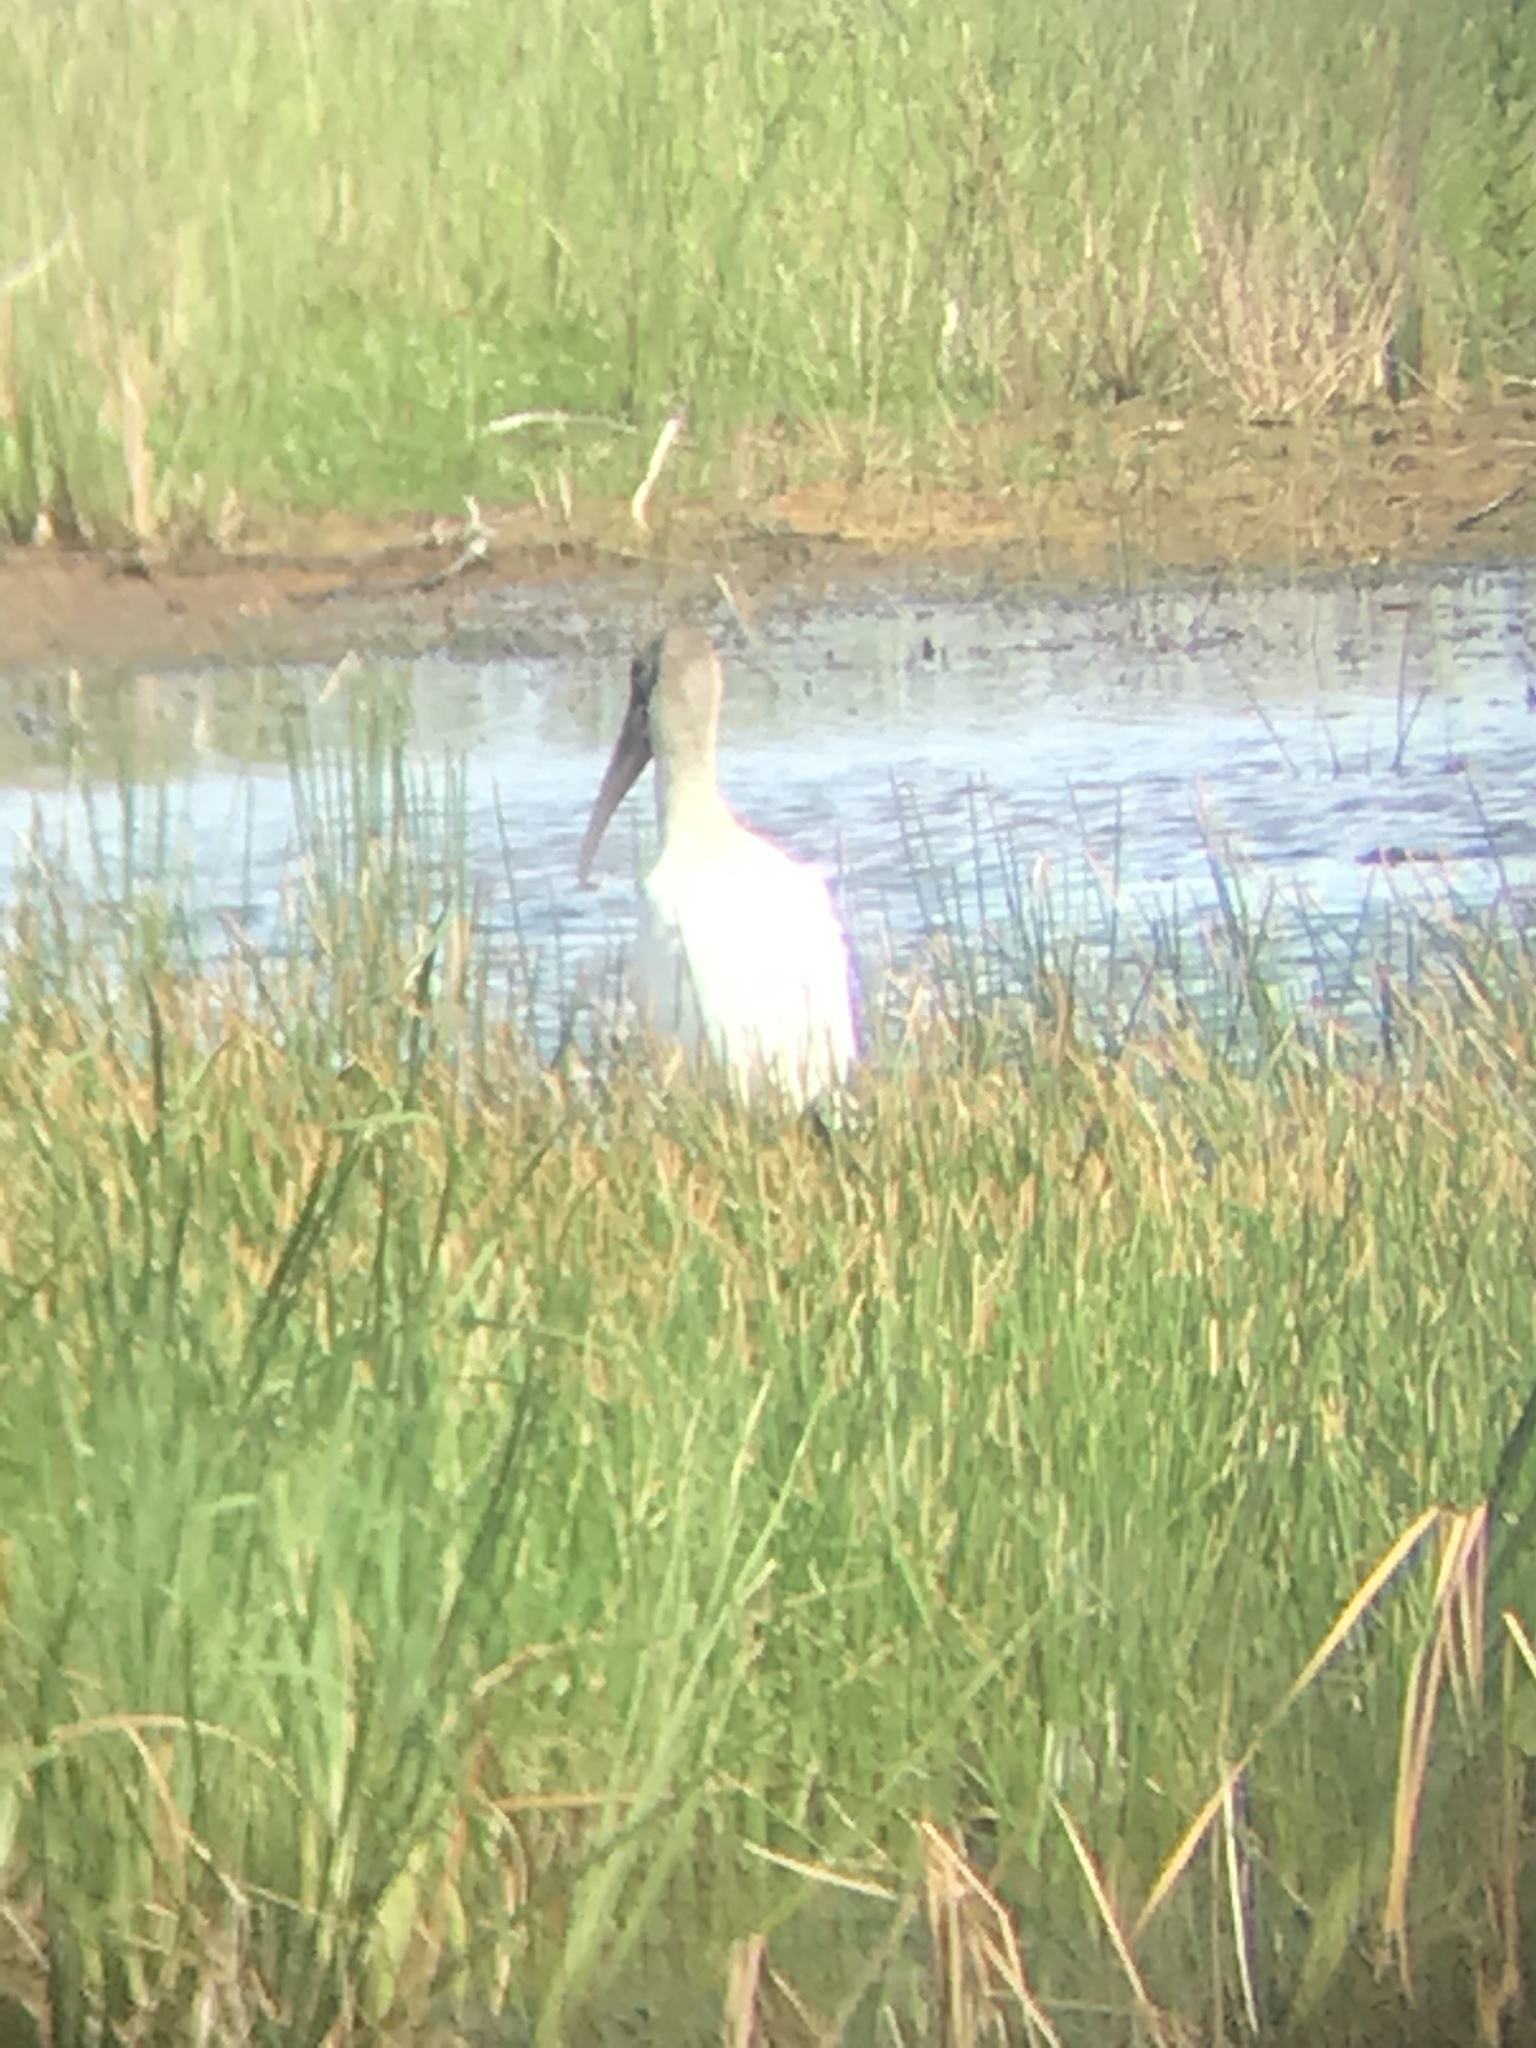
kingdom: Animalia
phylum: Chordata
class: Aves
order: Ciconiiformes
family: Ciconiidae
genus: Mycteria
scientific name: Mycteria americana
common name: Wood stork
